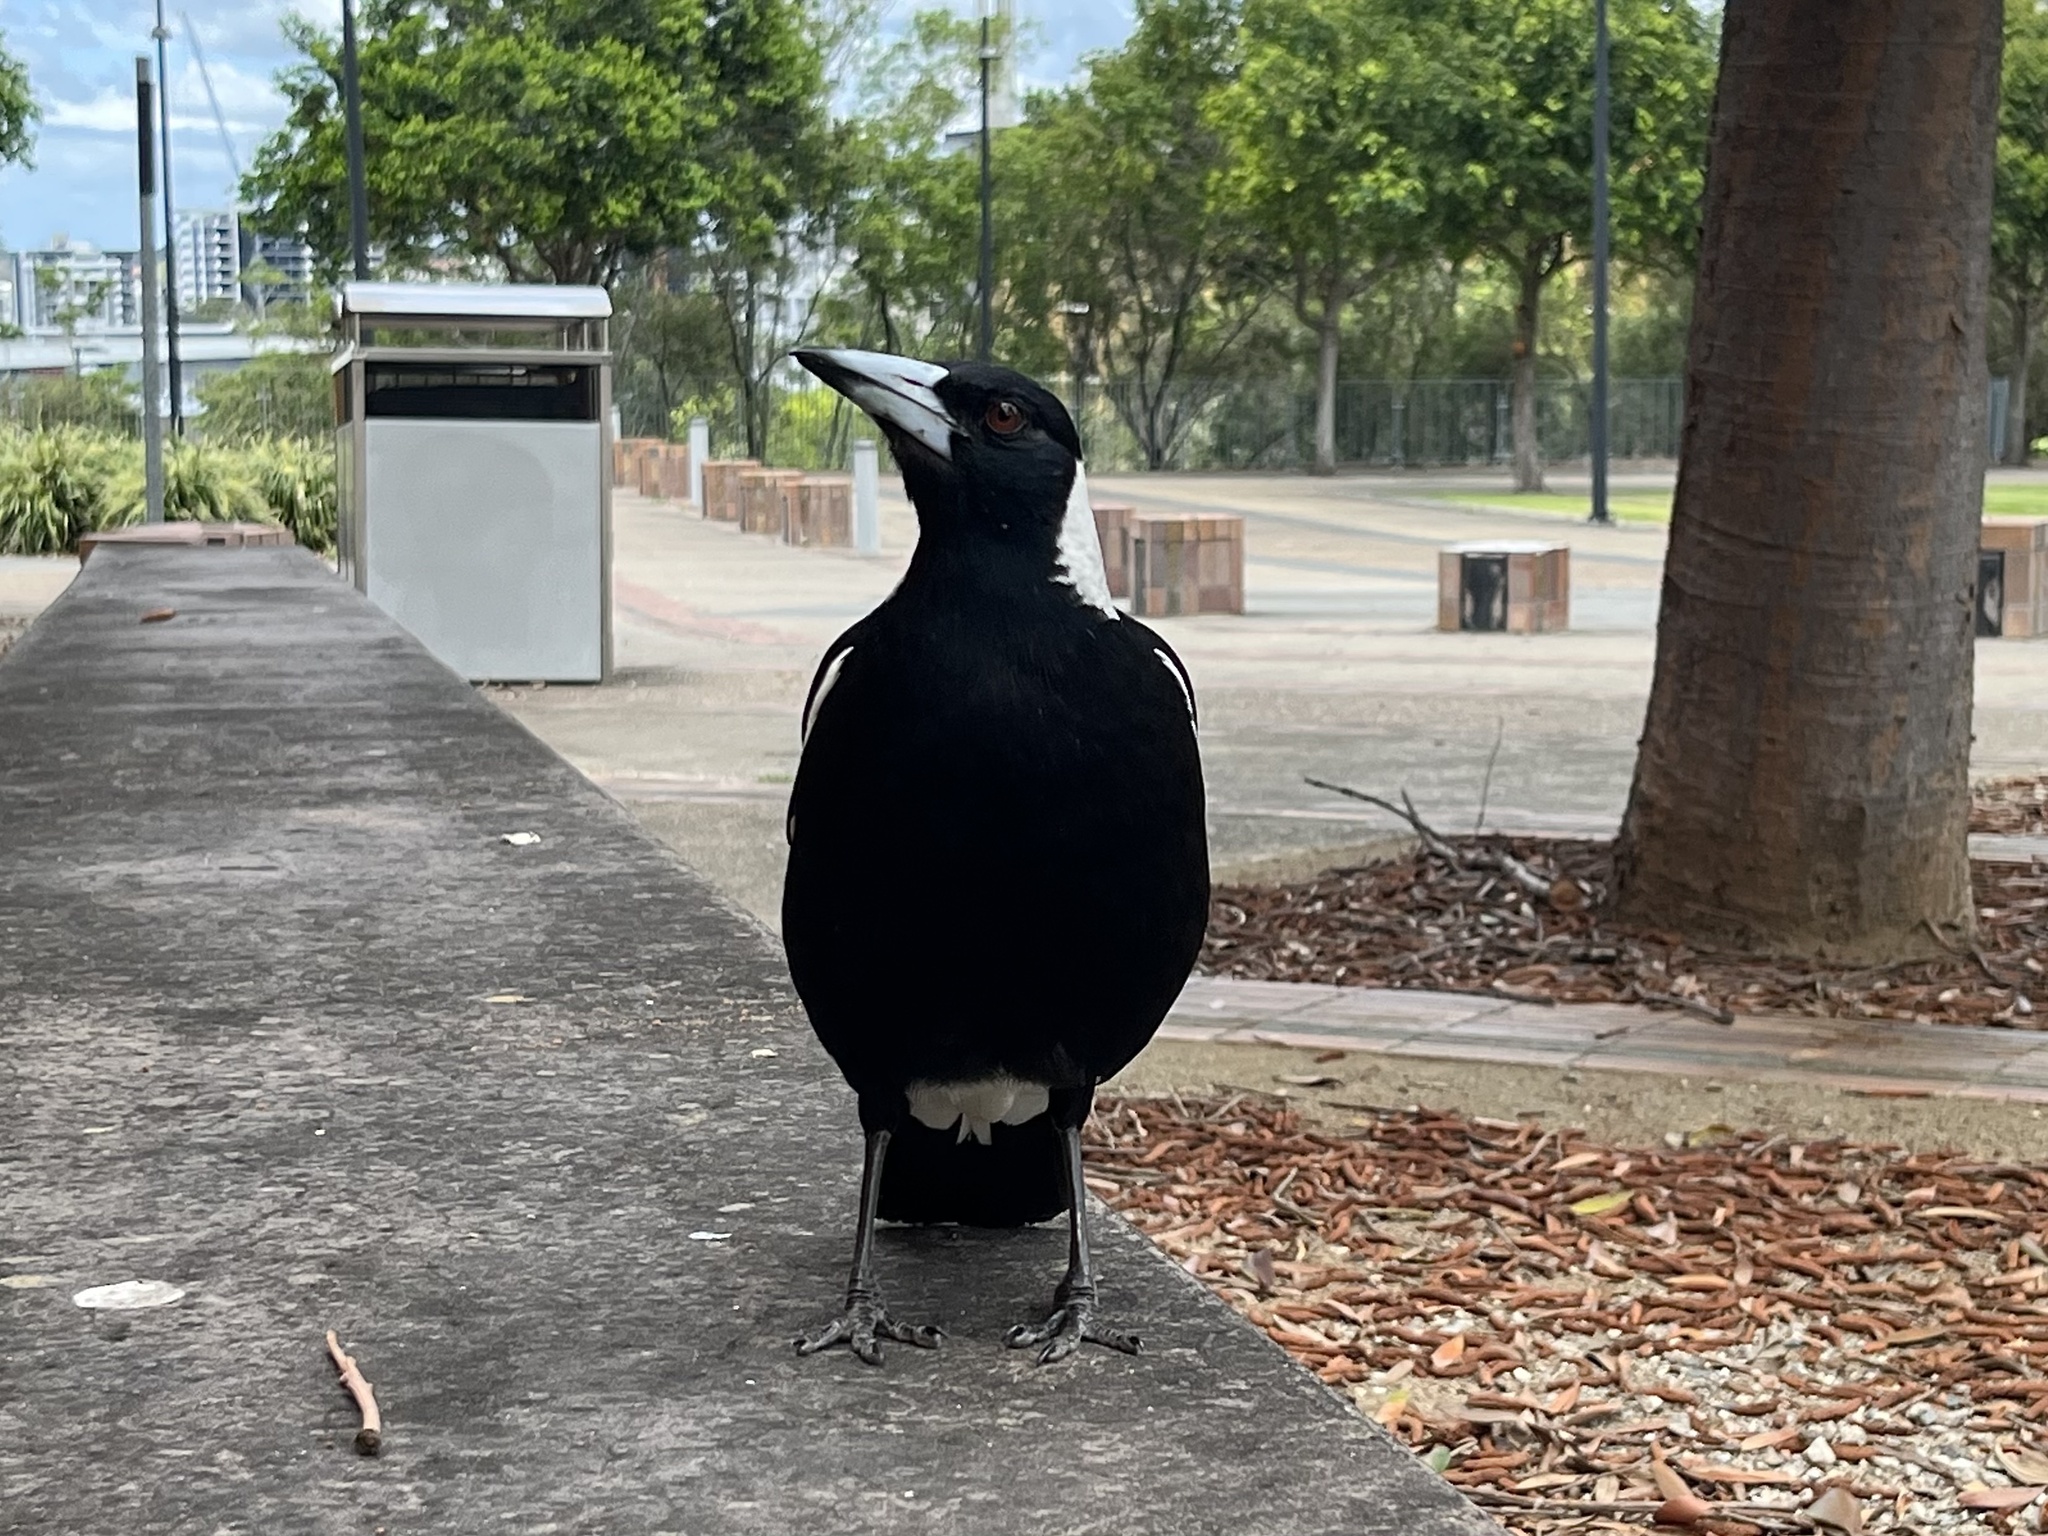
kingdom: Animalia
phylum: Chordata
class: Aves
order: Passeriformes
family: Cracticidae
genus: Gymnorhina
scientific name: Gymnorhina tibicen
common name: Australian magpie
